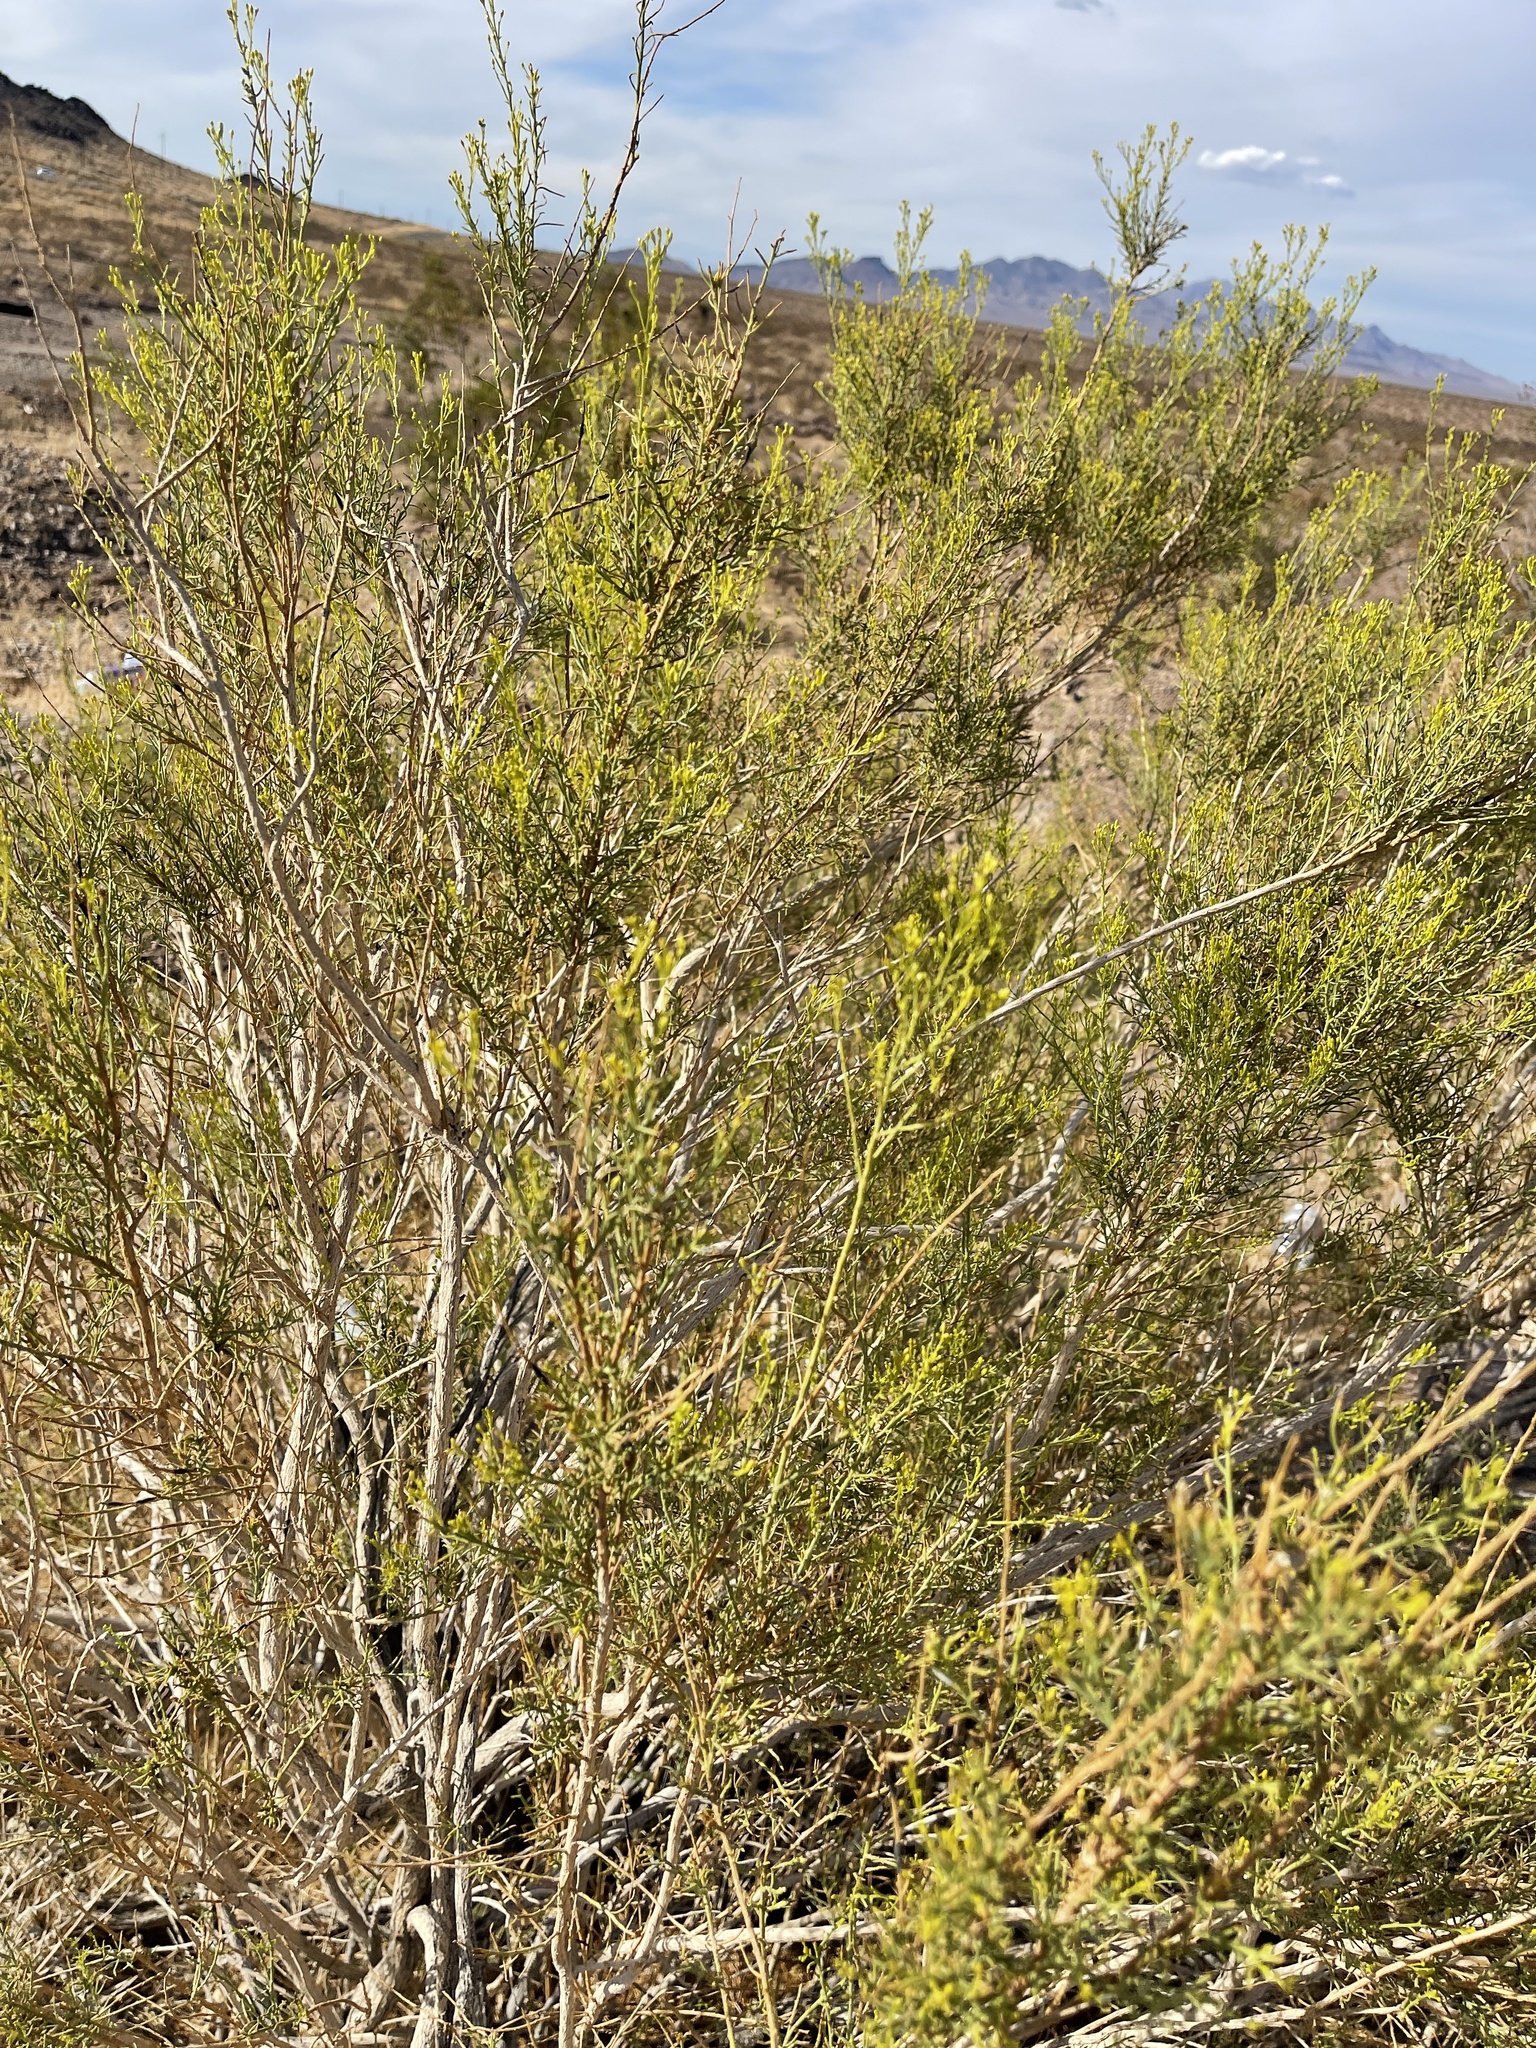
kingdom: Plantae
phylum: Tracheophyta
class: Magnoliopsida
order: Asterales
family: Asteraceae
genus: Ericameria
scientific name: Ericameria paniculata
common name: Punctate rabbitbrush
